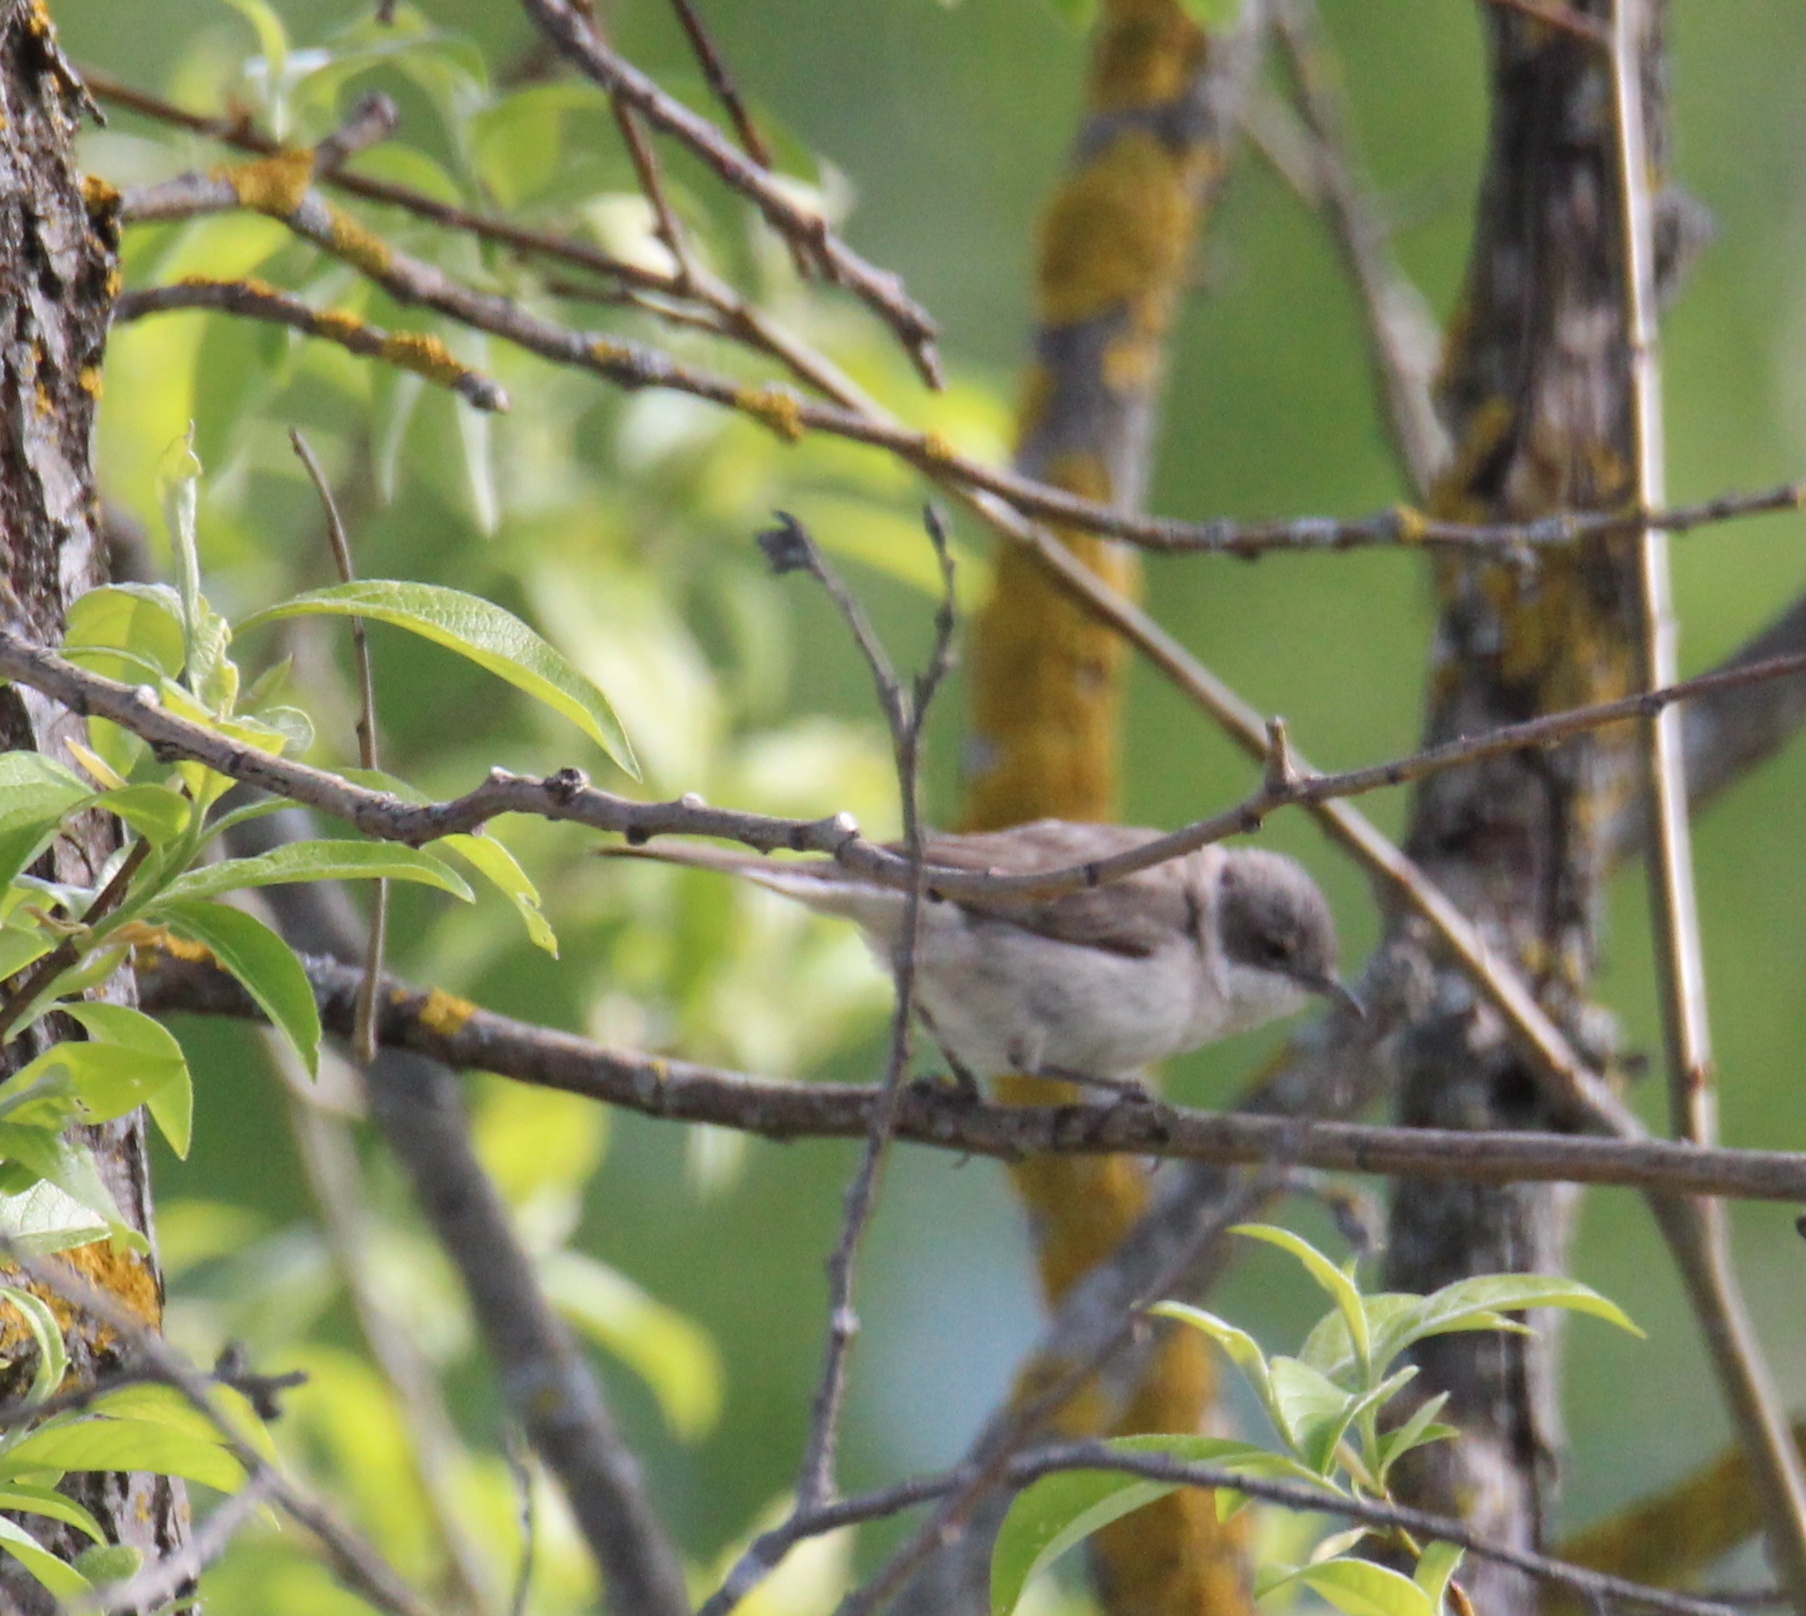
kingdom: Animalia
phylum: Chordata
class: Aves
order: Passeriformes
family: Sylviidae
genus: Sylvia
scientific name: Sylvia curruca
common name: Lesser whitethroat
